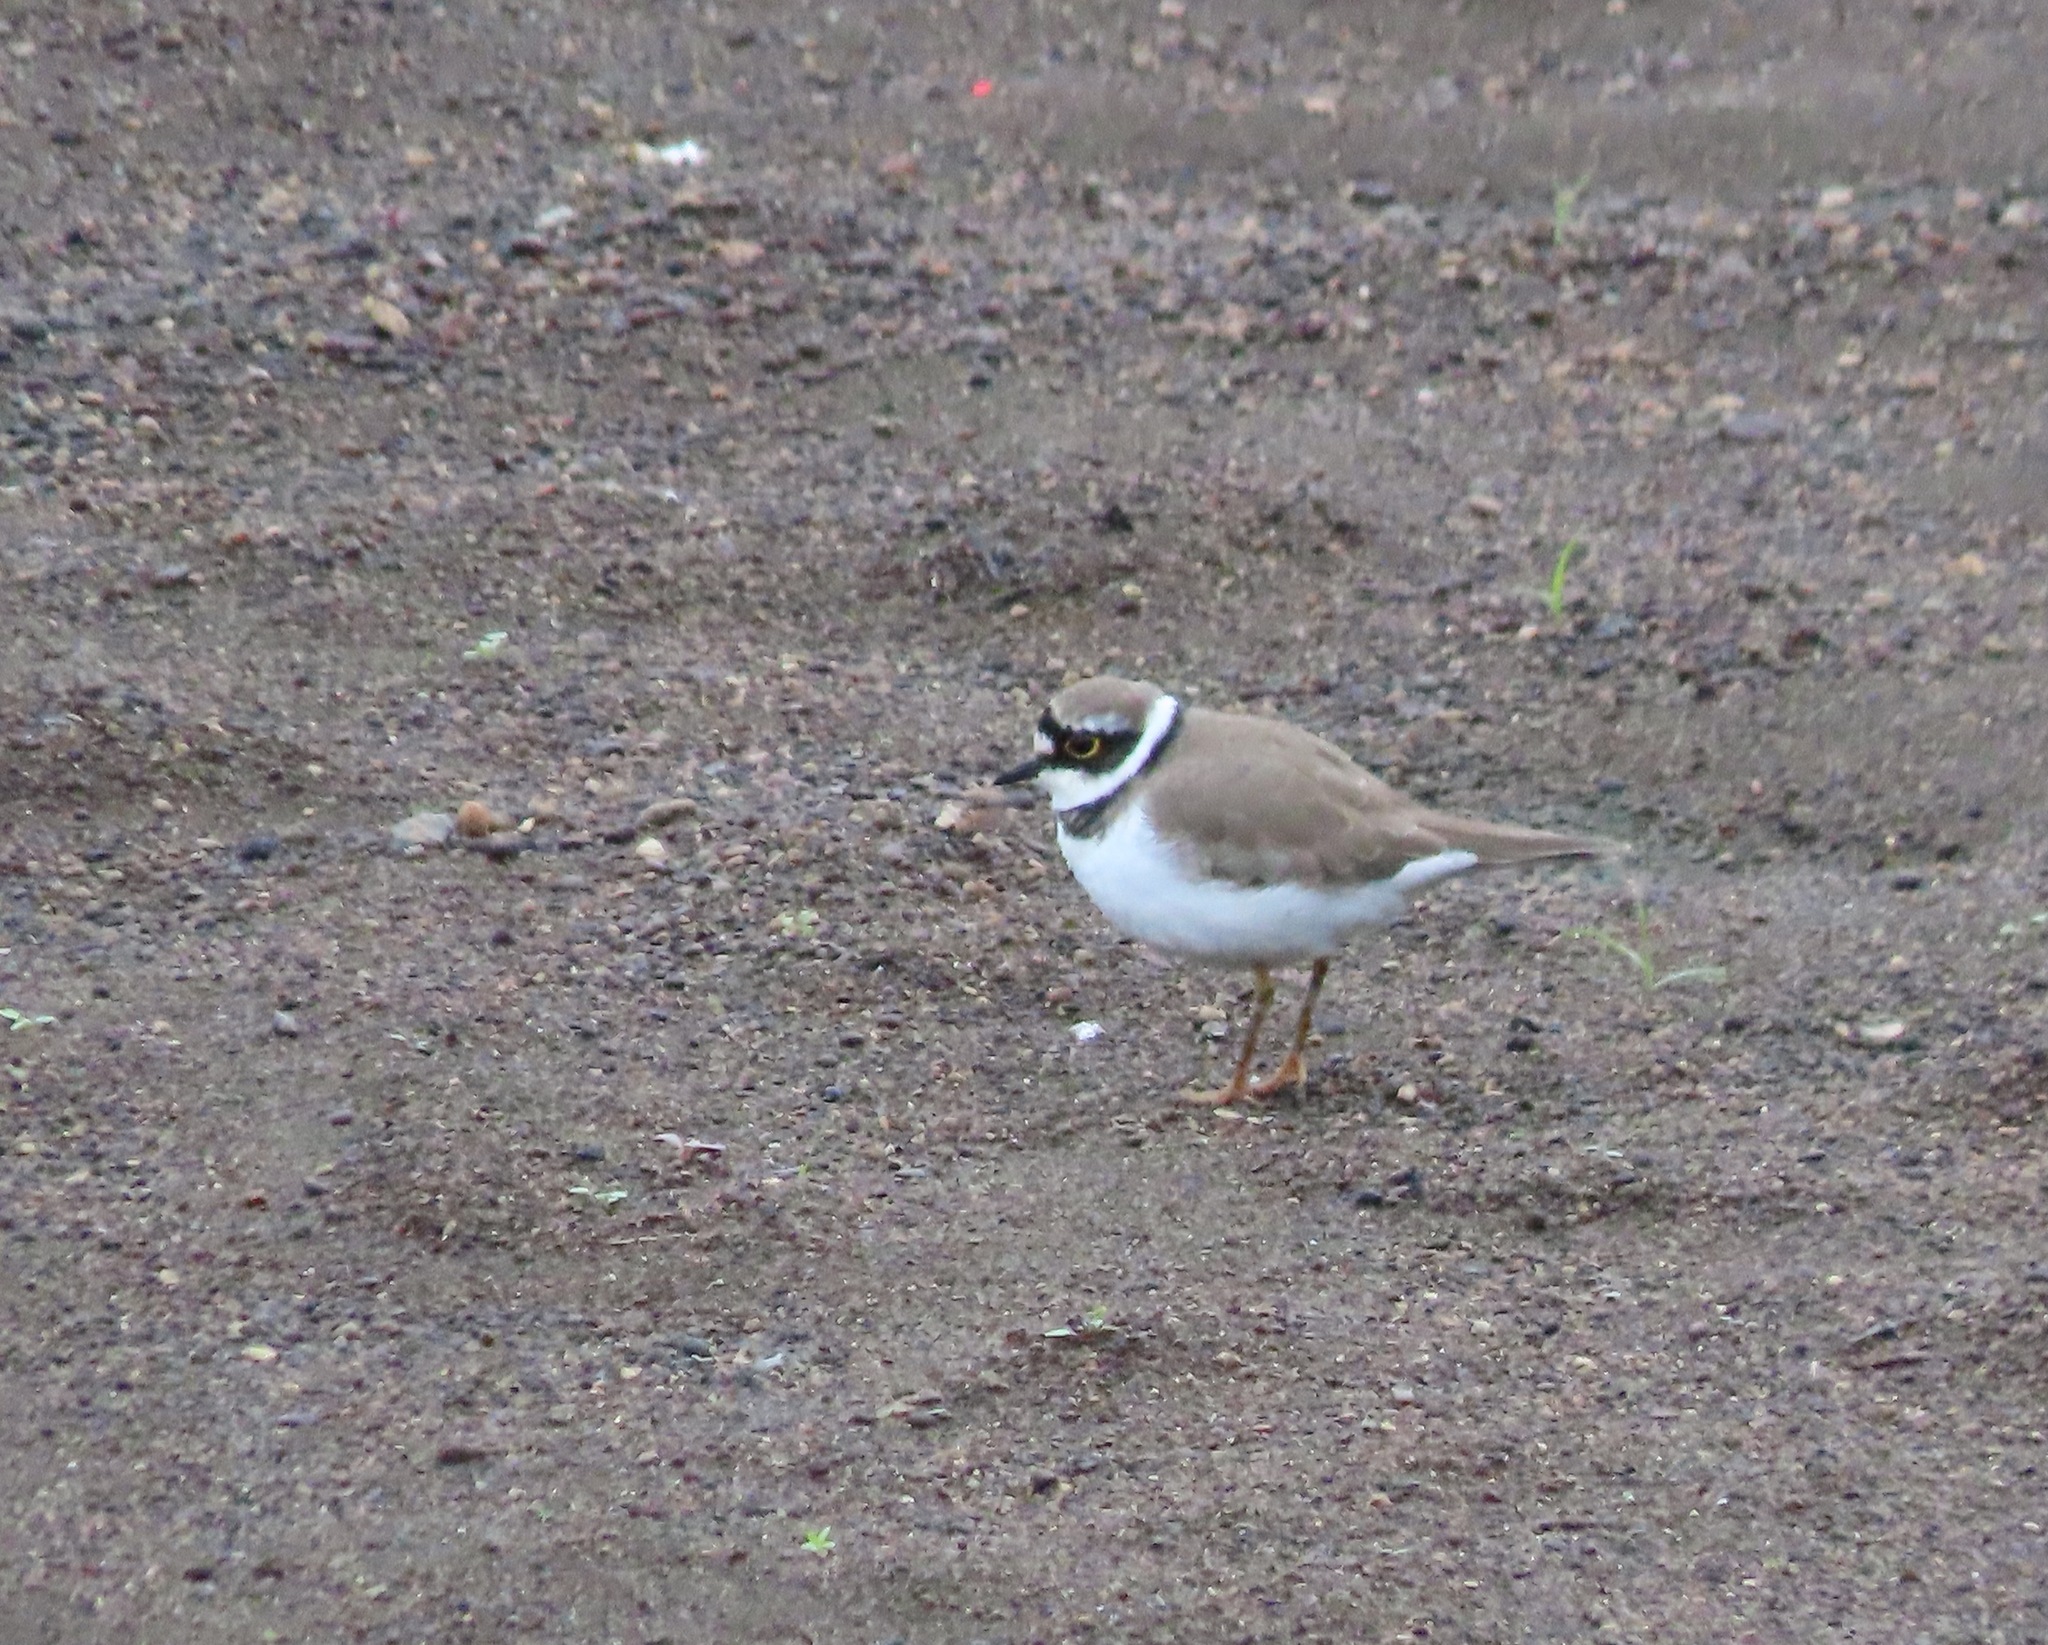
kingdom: Animalia
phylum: Chordata
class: Aves
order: Charadriiformes
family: Charadriidae
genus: Charadrius
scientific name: Charadrius dubius
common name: Little ringed plover
